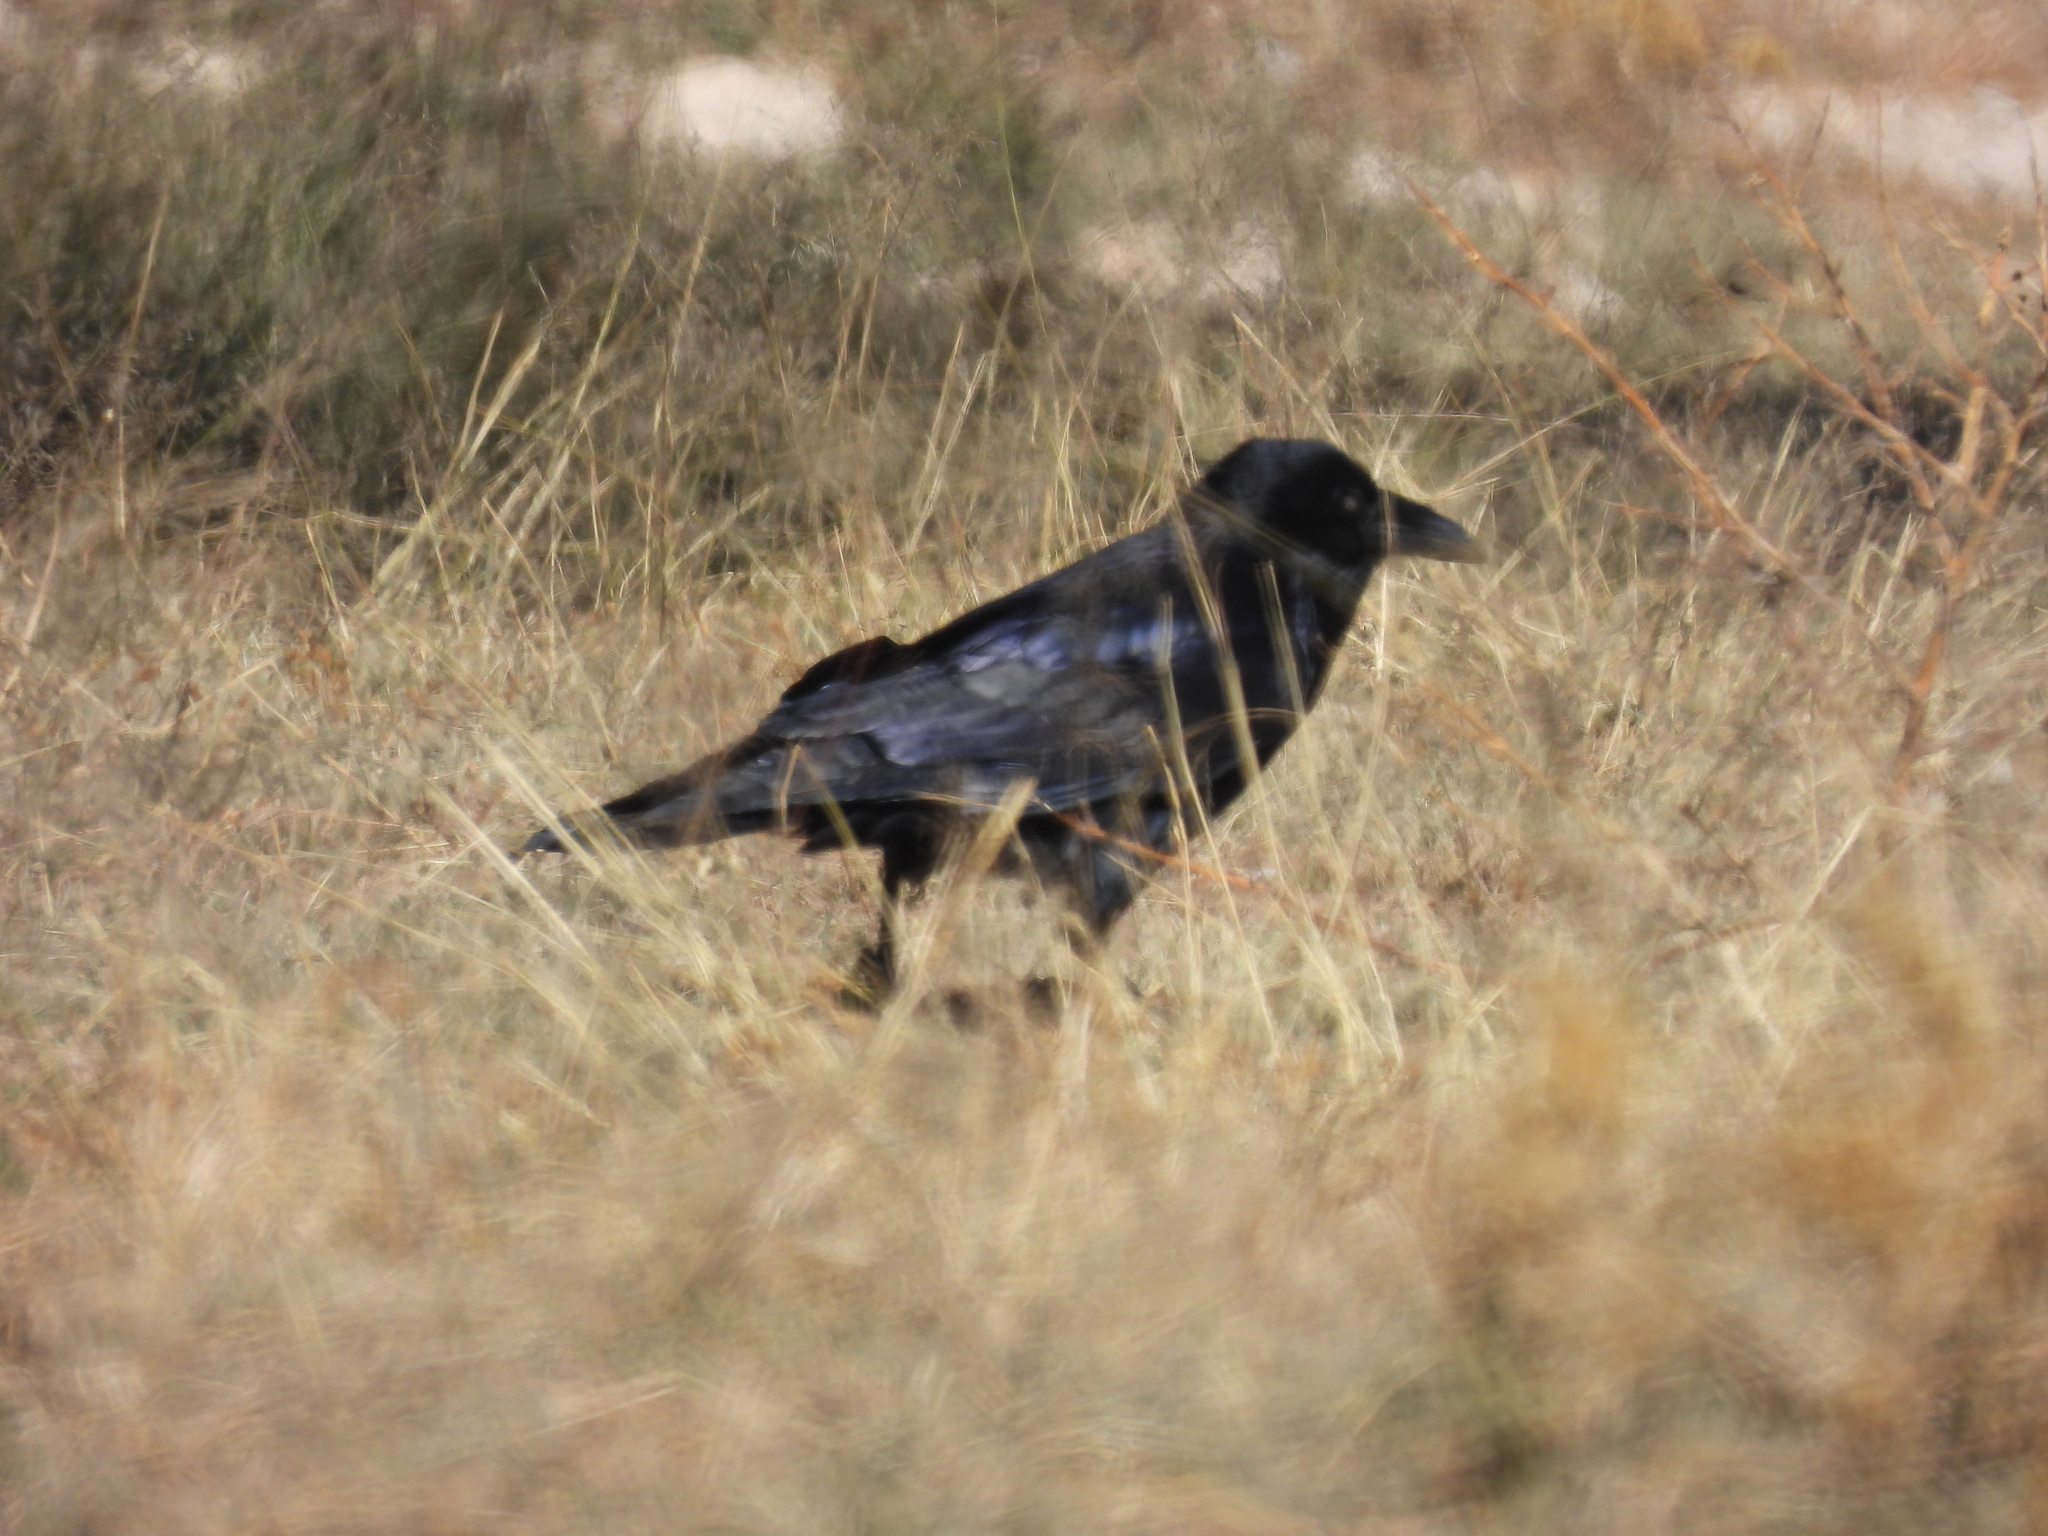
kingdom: Animalia
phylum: Chordata
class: Aves
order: Passeriformes
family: Corvidae
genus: Corvus
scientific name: Corvus corax
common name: Common raven
